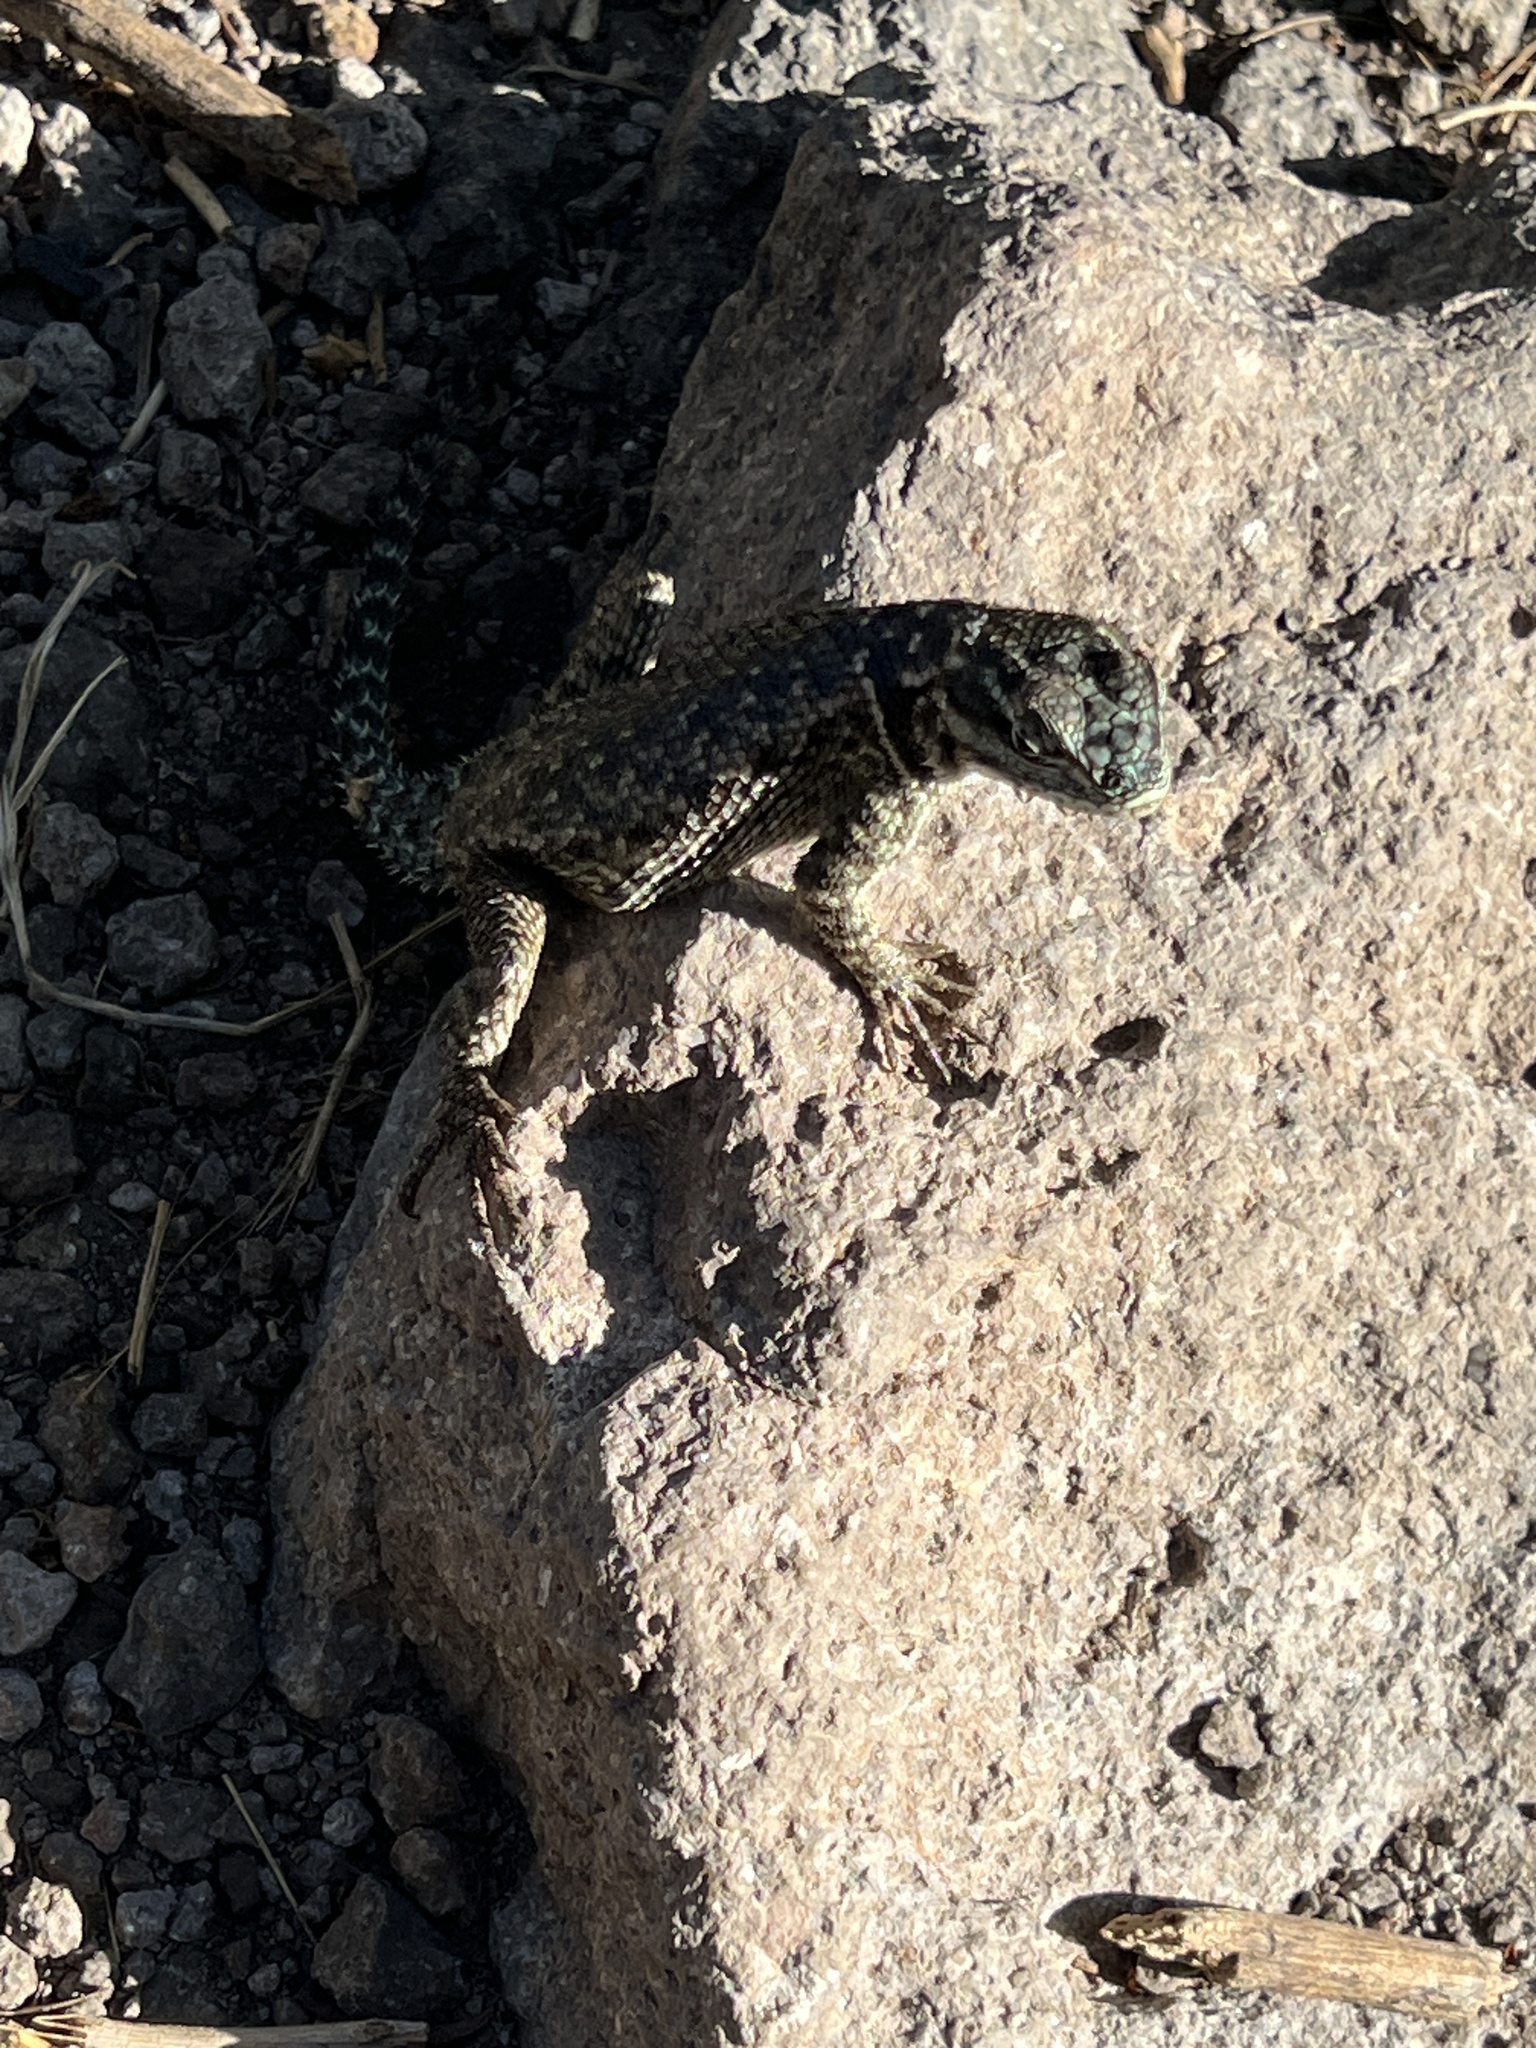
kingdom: Animalia
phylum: Chordata
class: Squamata
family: Phrynosomatidae
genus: Sceloporus
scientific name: Sceloporus jarrovii
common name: Yarrow's spiny lizard
